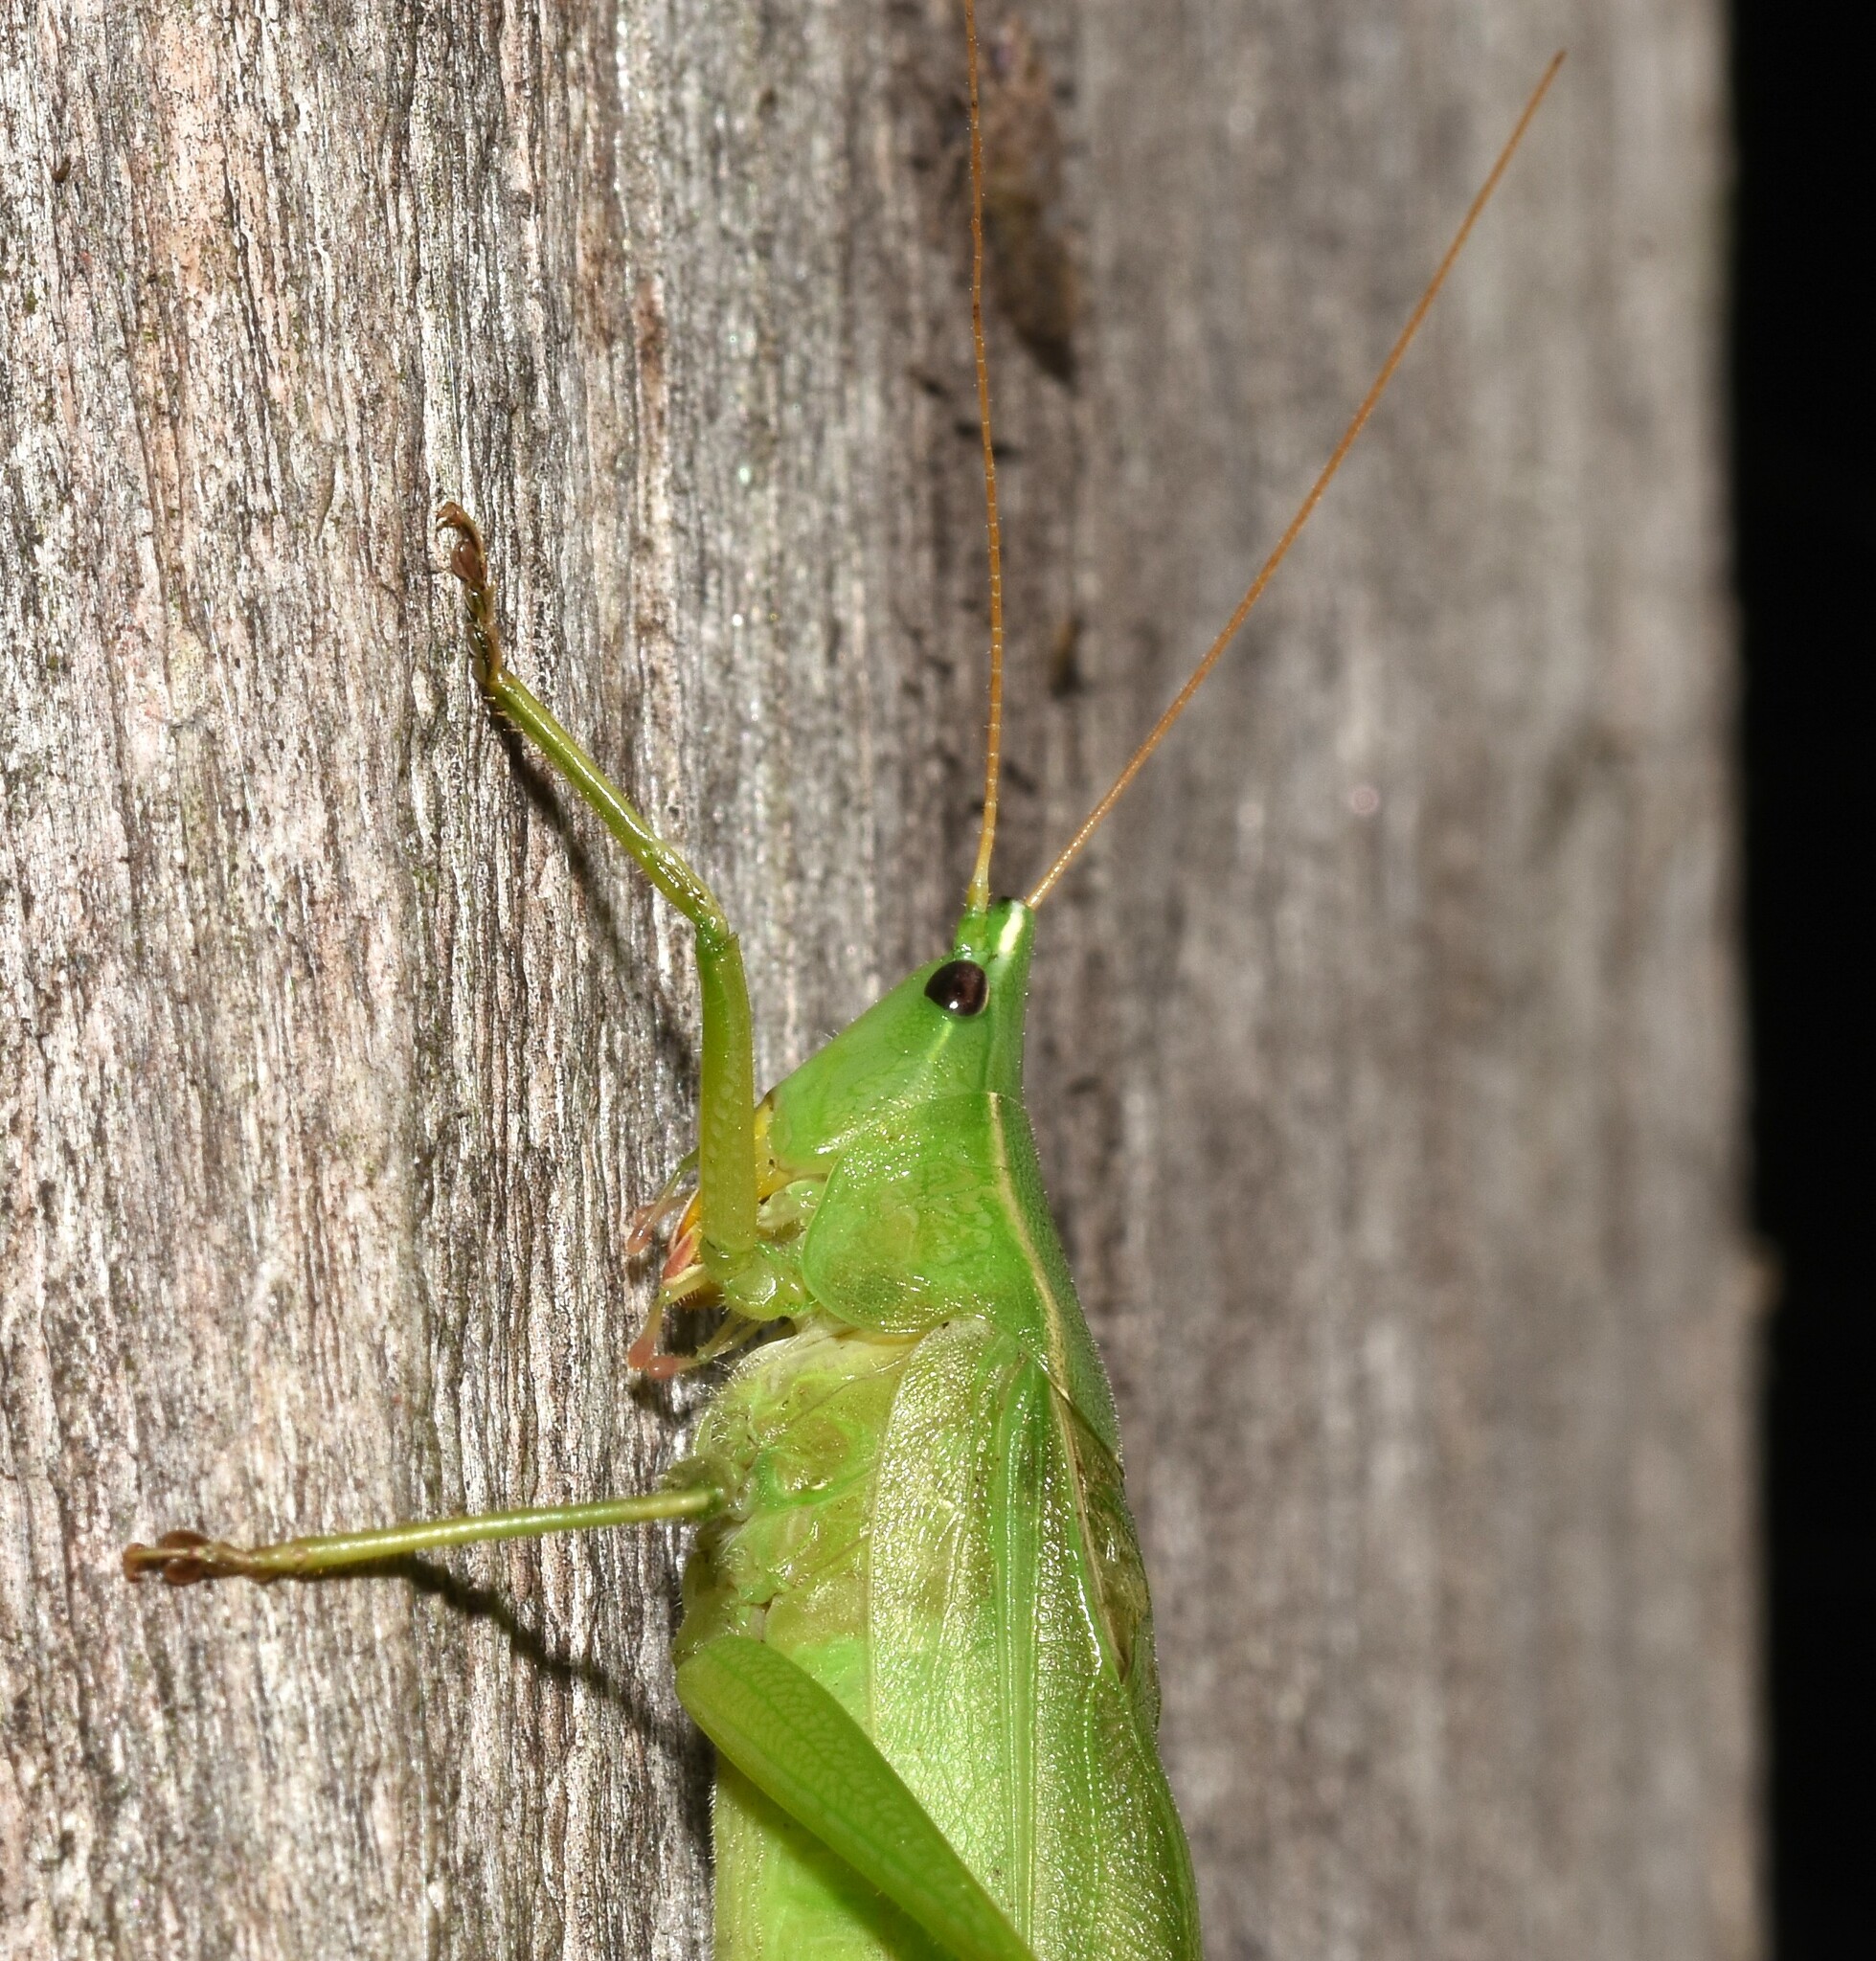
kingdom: Animalia
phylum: Arthropoda
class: Insecta
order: Orthoptera
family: Tettigoniidae
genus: Neoconocephalus
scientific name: Neoconocephalus retusus
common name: Round-tipped conehead
